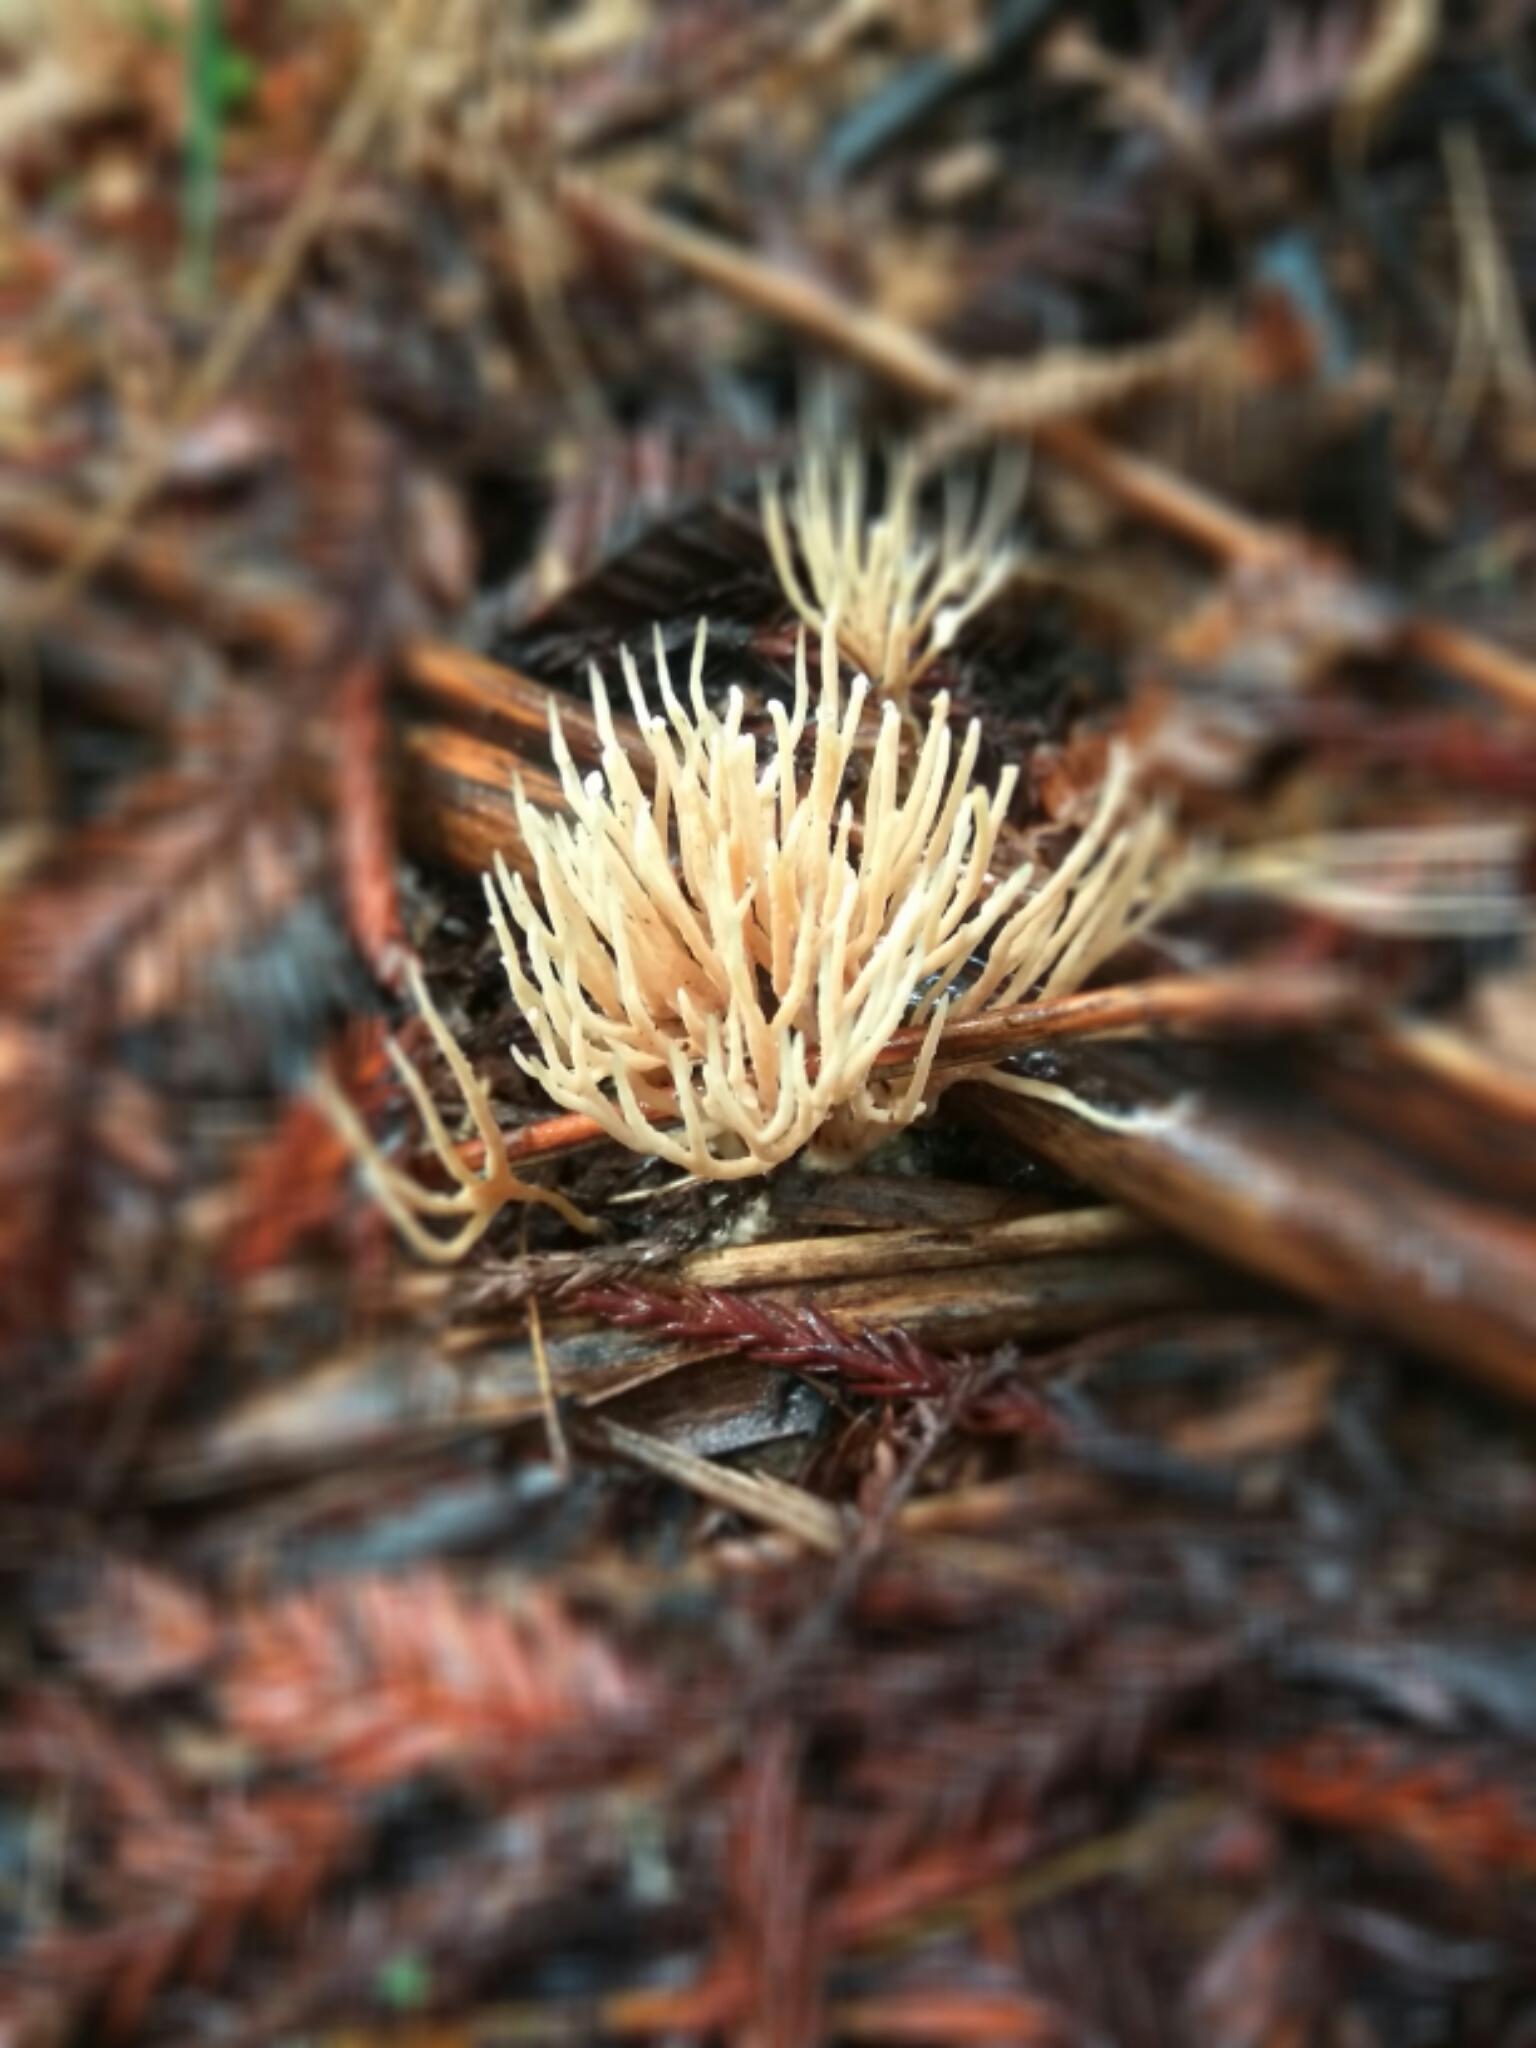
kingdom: Fungi
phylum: Basidiomycota
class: Agaricomycetes
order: Tremellodendropsidales
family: Tremellodendropsidaceae
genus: Tremellodendropsis
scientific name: Tremellodendropsis flagelliformis
